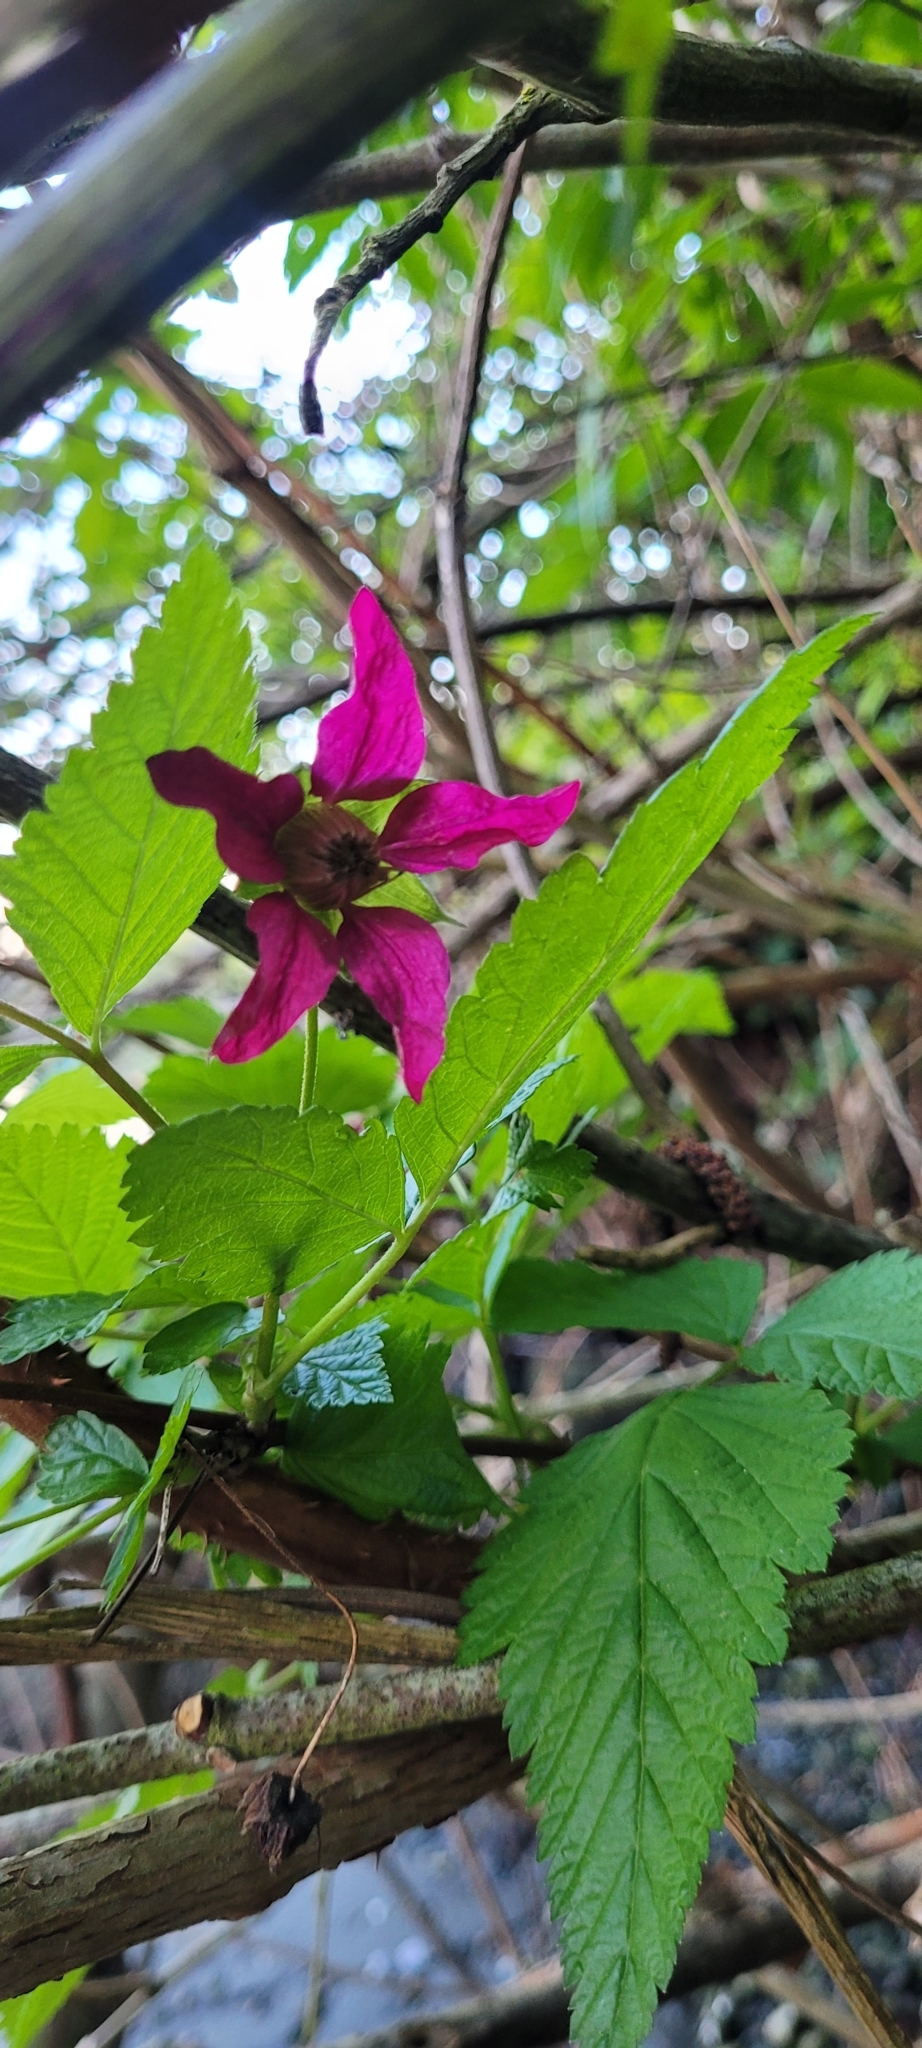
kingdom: Plantae
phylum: Tracheophyta
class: Magnoliopsida
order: Rosales
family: Rosaceae
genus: Rubus
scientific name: Rubus spectabilis
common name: Salmonberry
